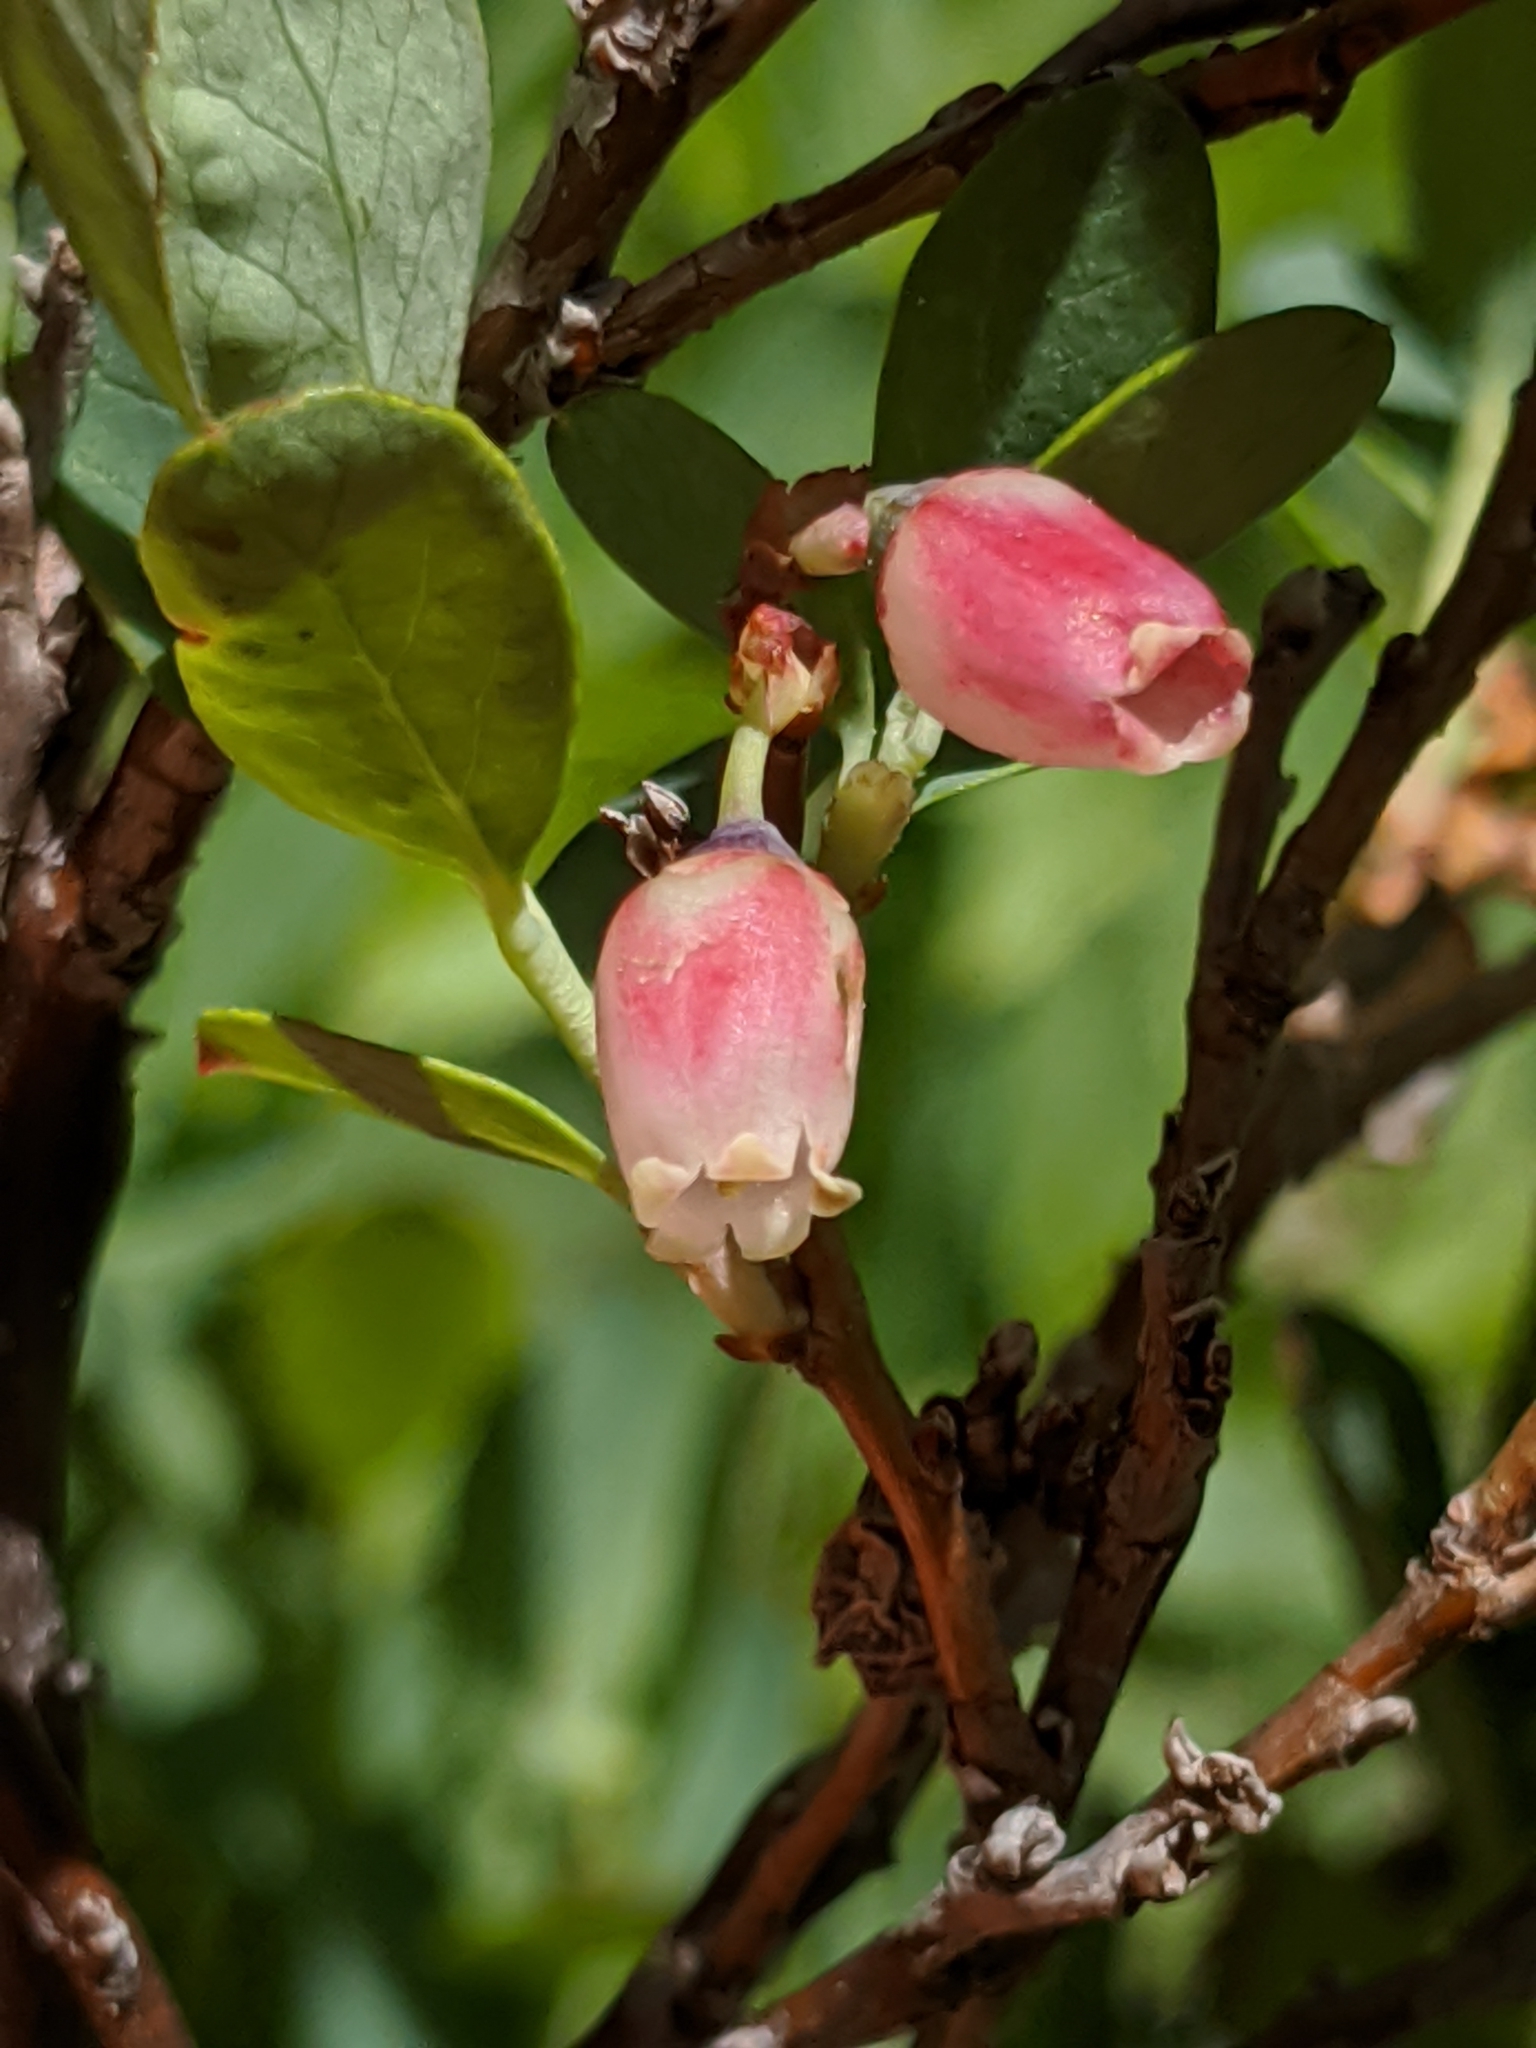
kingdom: Plantae
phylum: Tracheophyta
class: Magnoliopsida
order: Ericales
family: Ericaceae
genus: Vaccinium
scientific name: Vaccinium uliginosum
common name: Bog bilberry
